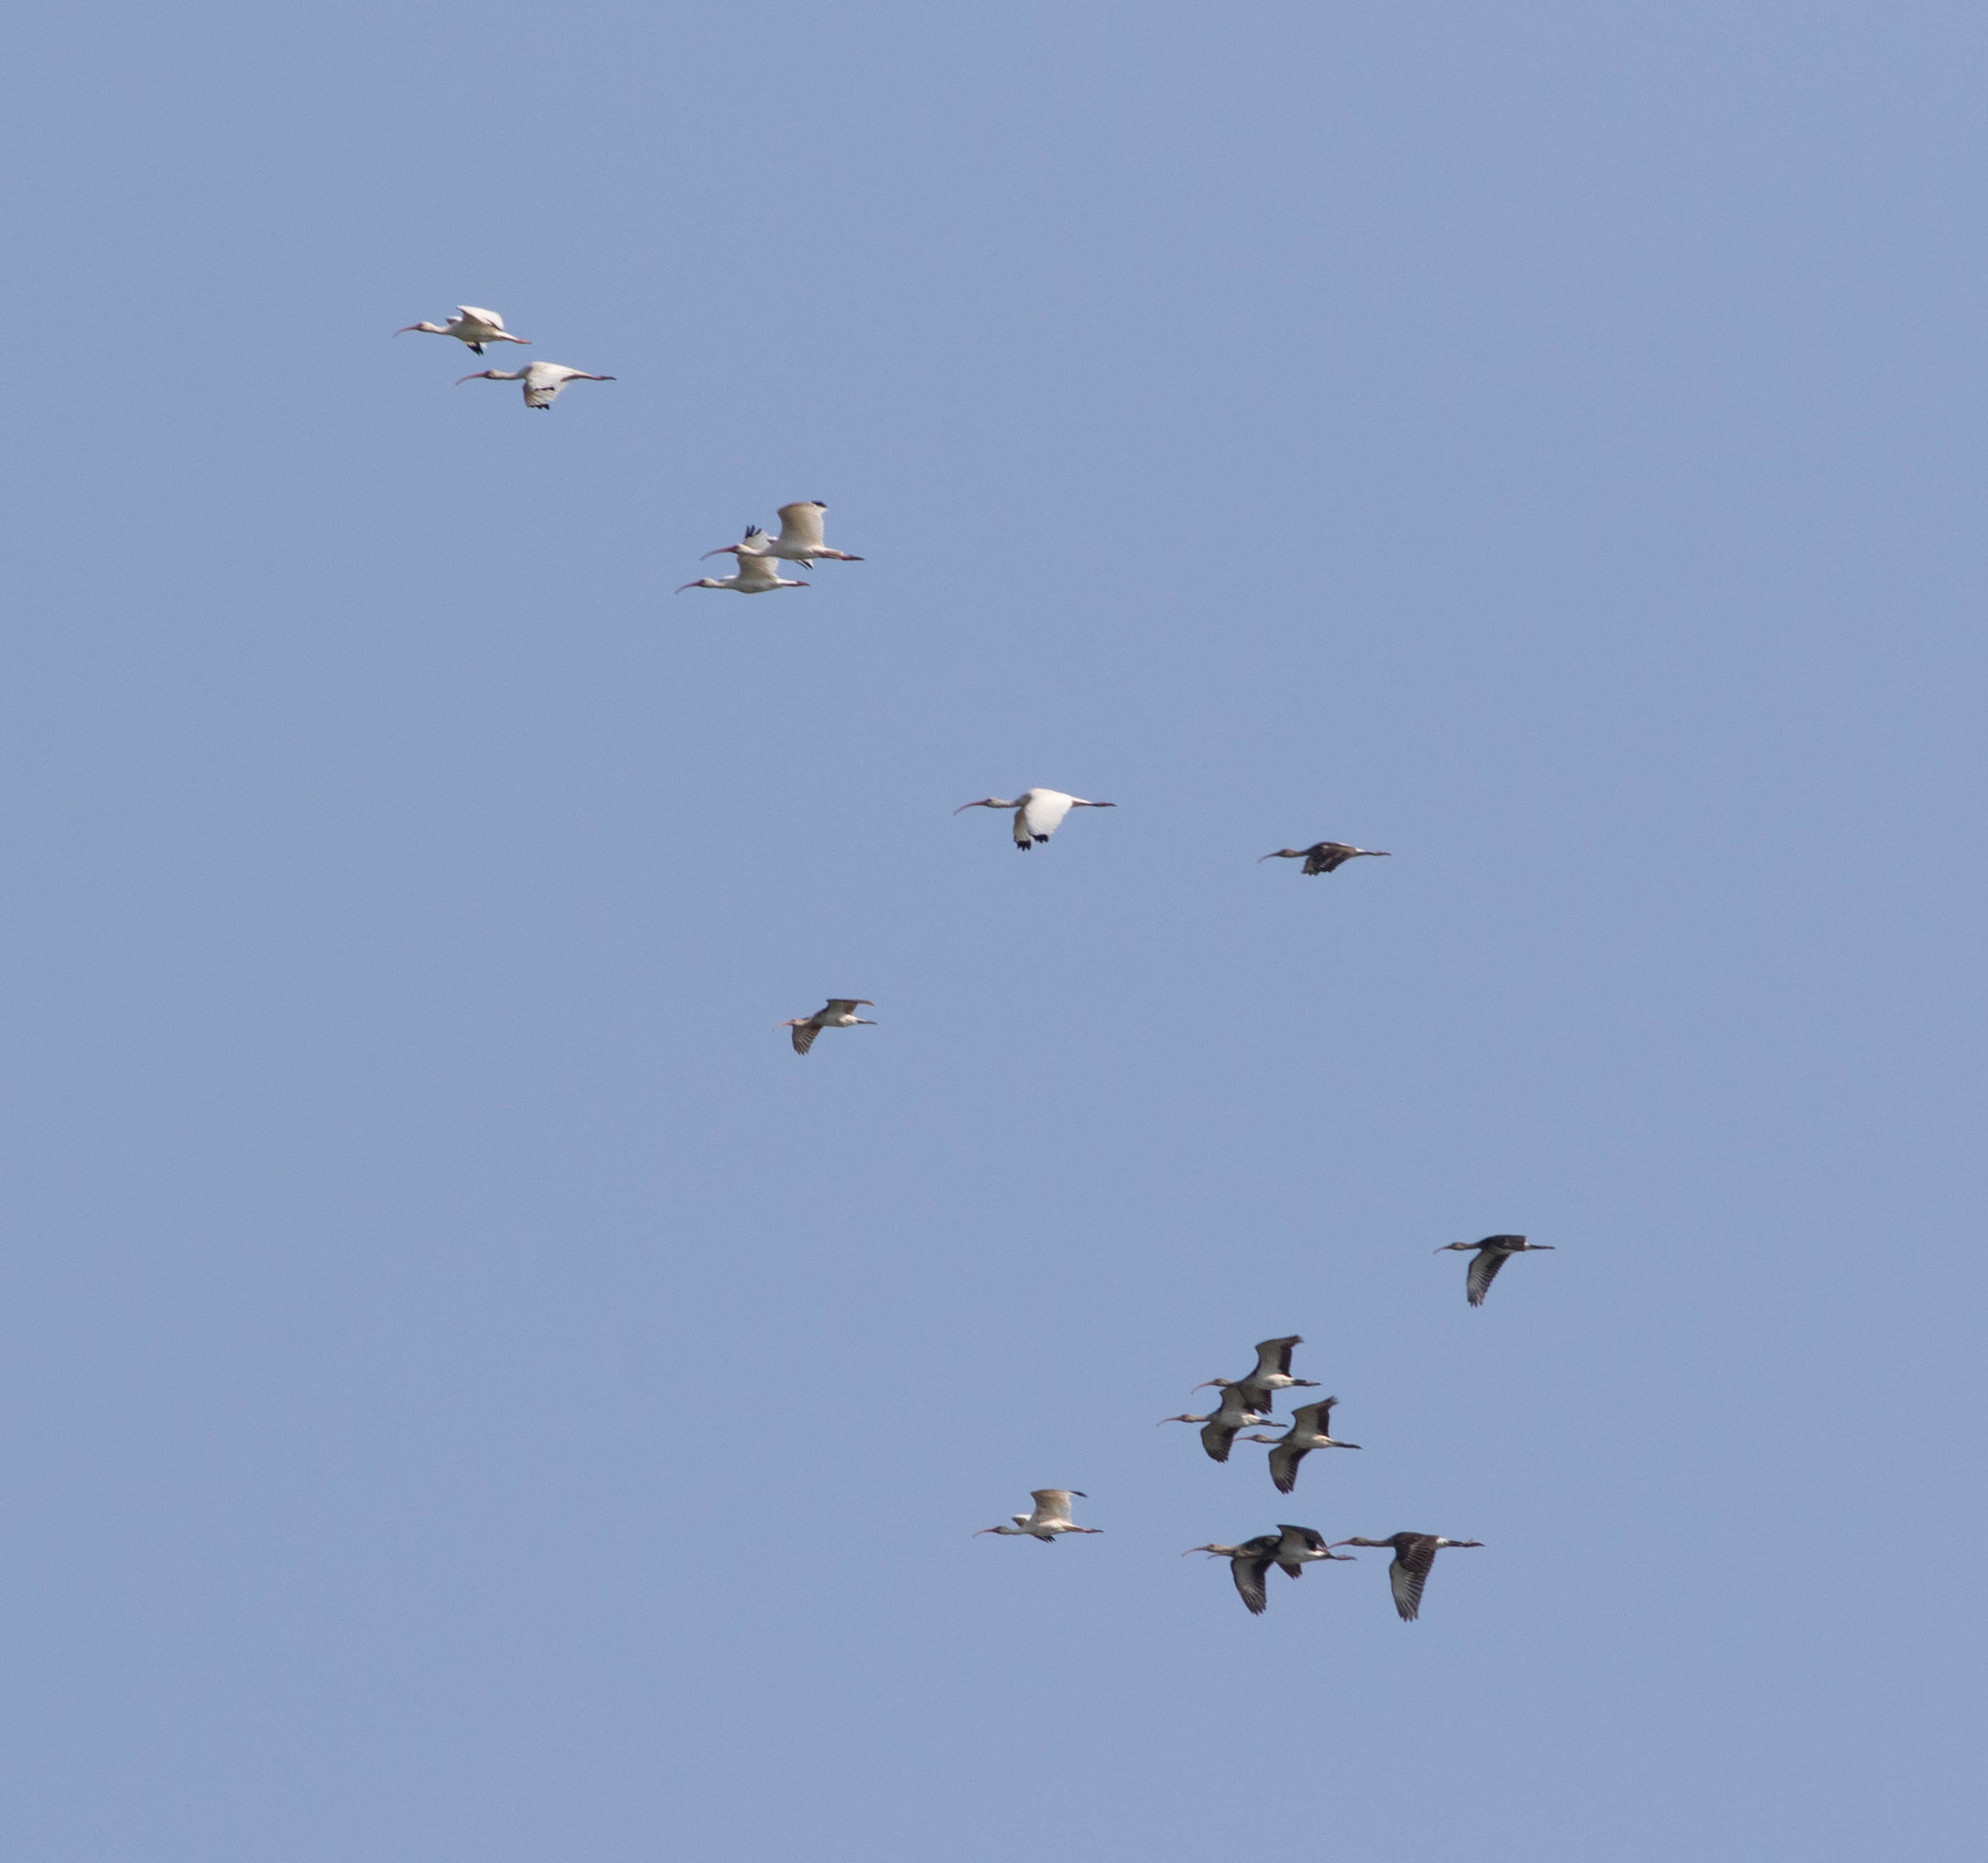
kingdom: Animalia
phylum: Chordata
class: Aves
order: Pelecaniformes
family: Threskiornithidae
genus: Eudocimus
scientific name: Eudocimus albus
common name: White ibis
